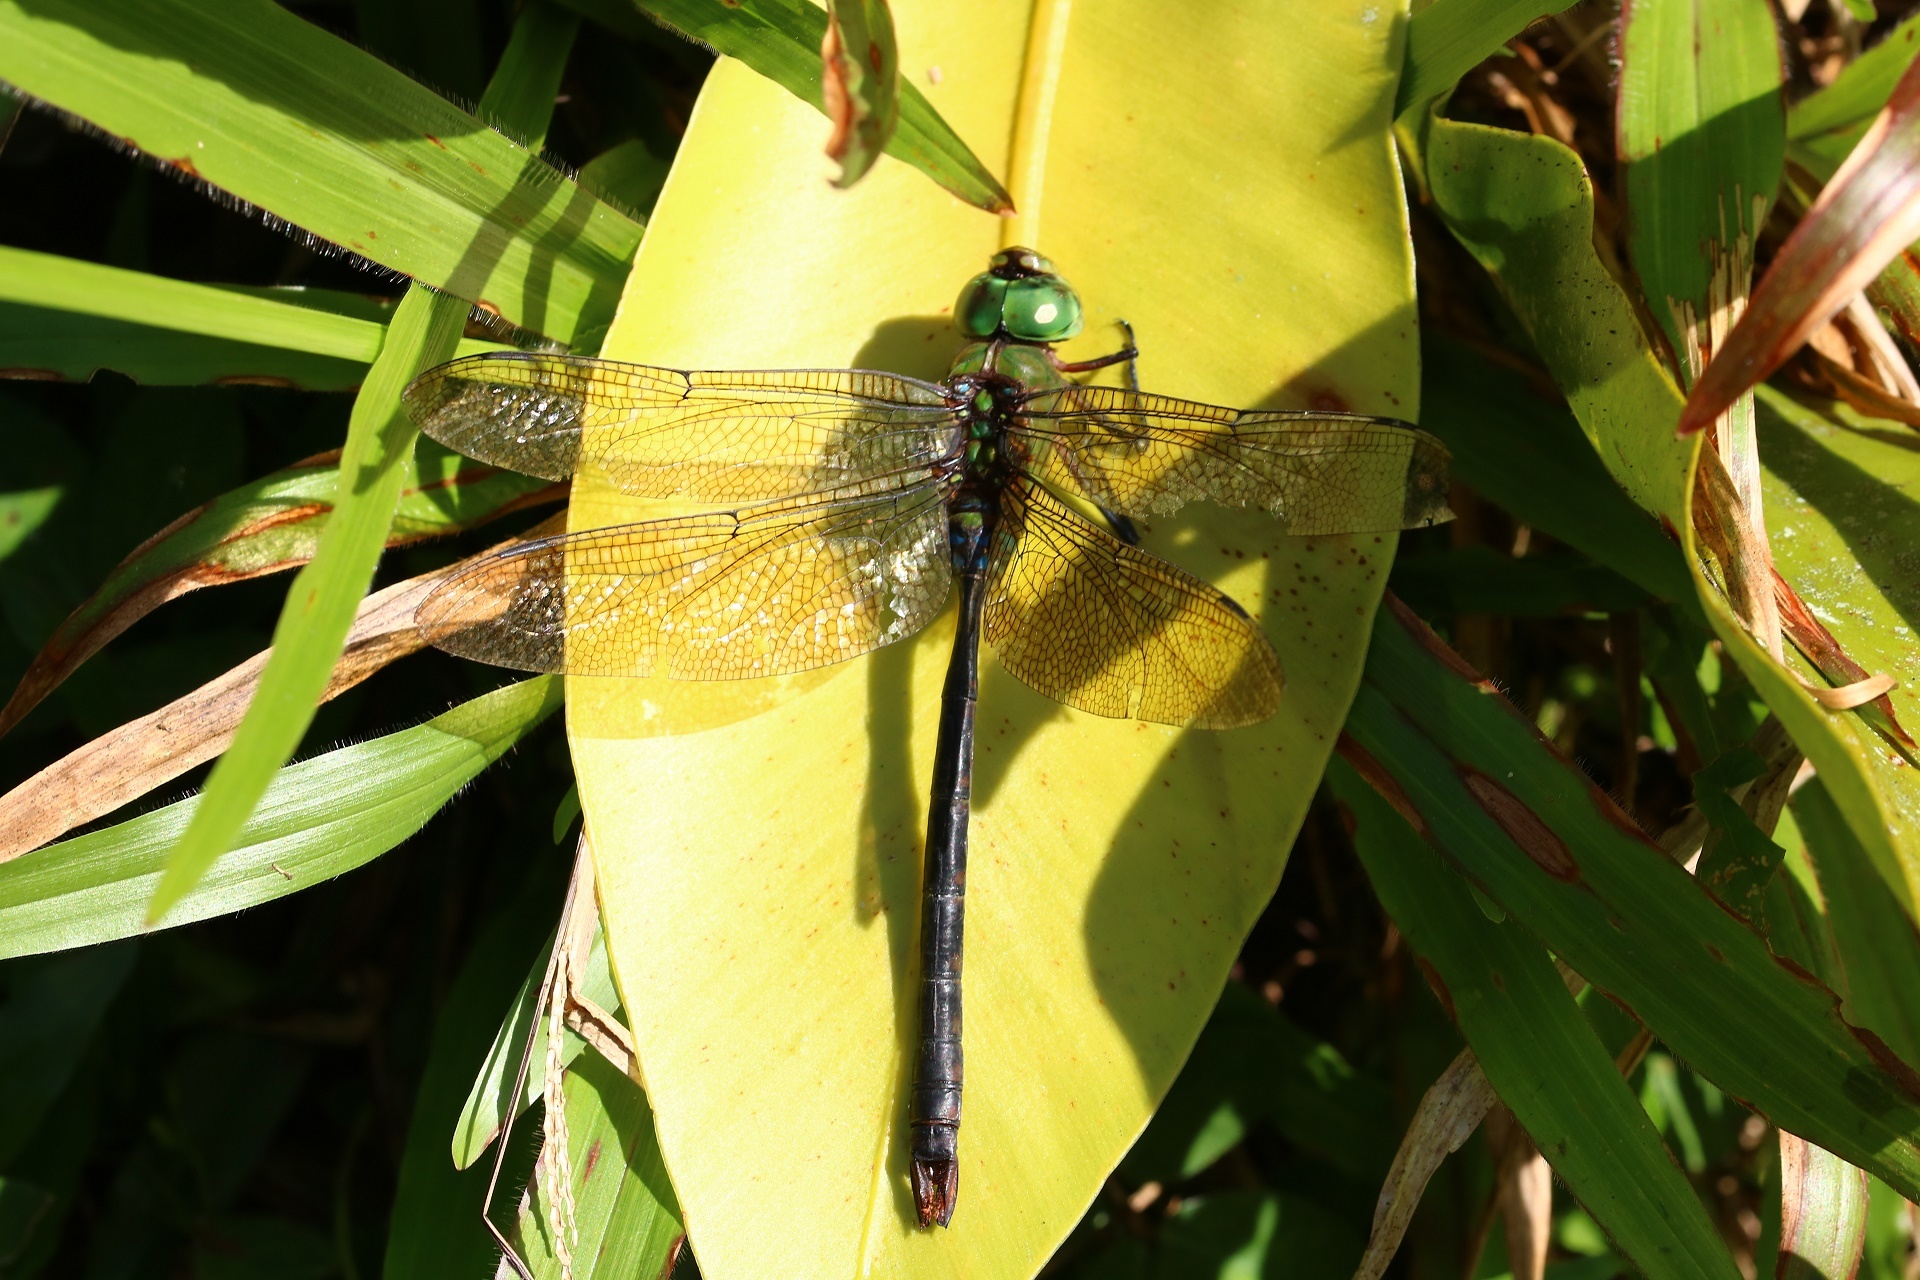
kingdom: Animalia
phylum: Arthropoda
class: Insecta
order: Odonata
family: Aeshnidae
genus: Anax
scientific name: Anax panybeus
